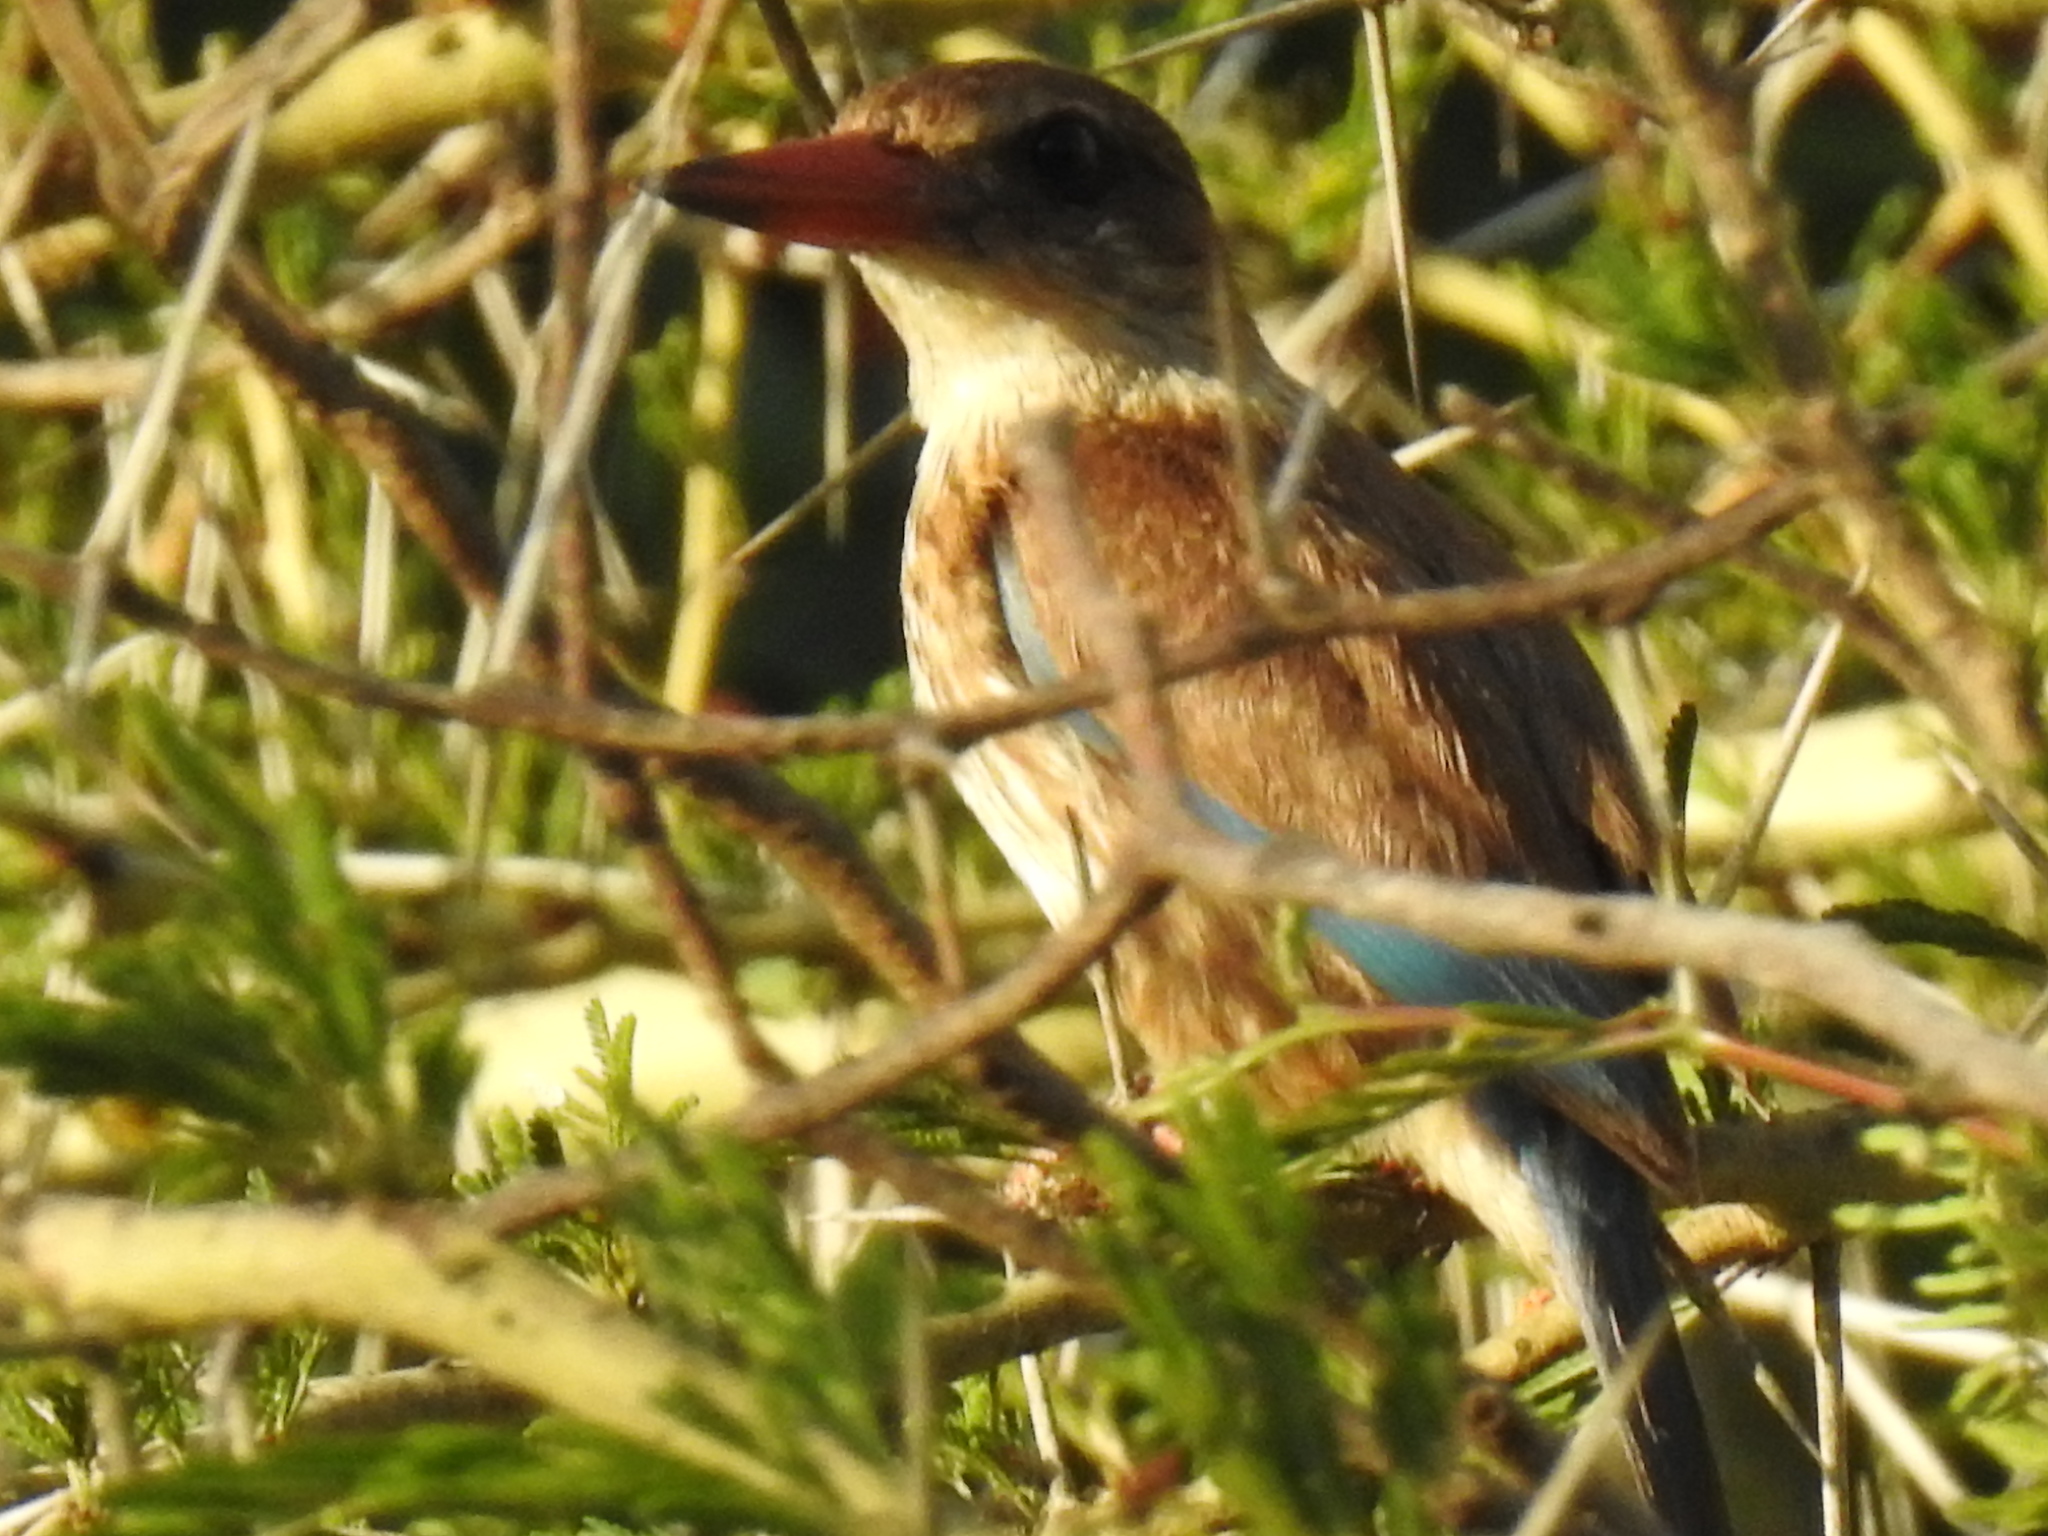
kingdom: Animalia
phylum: Chordata
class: Aves
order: Coraciiformes
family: Alcedinidae
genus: Halcyon
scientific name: Halcyon albiventris
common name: Brown-hooded kingfisher
